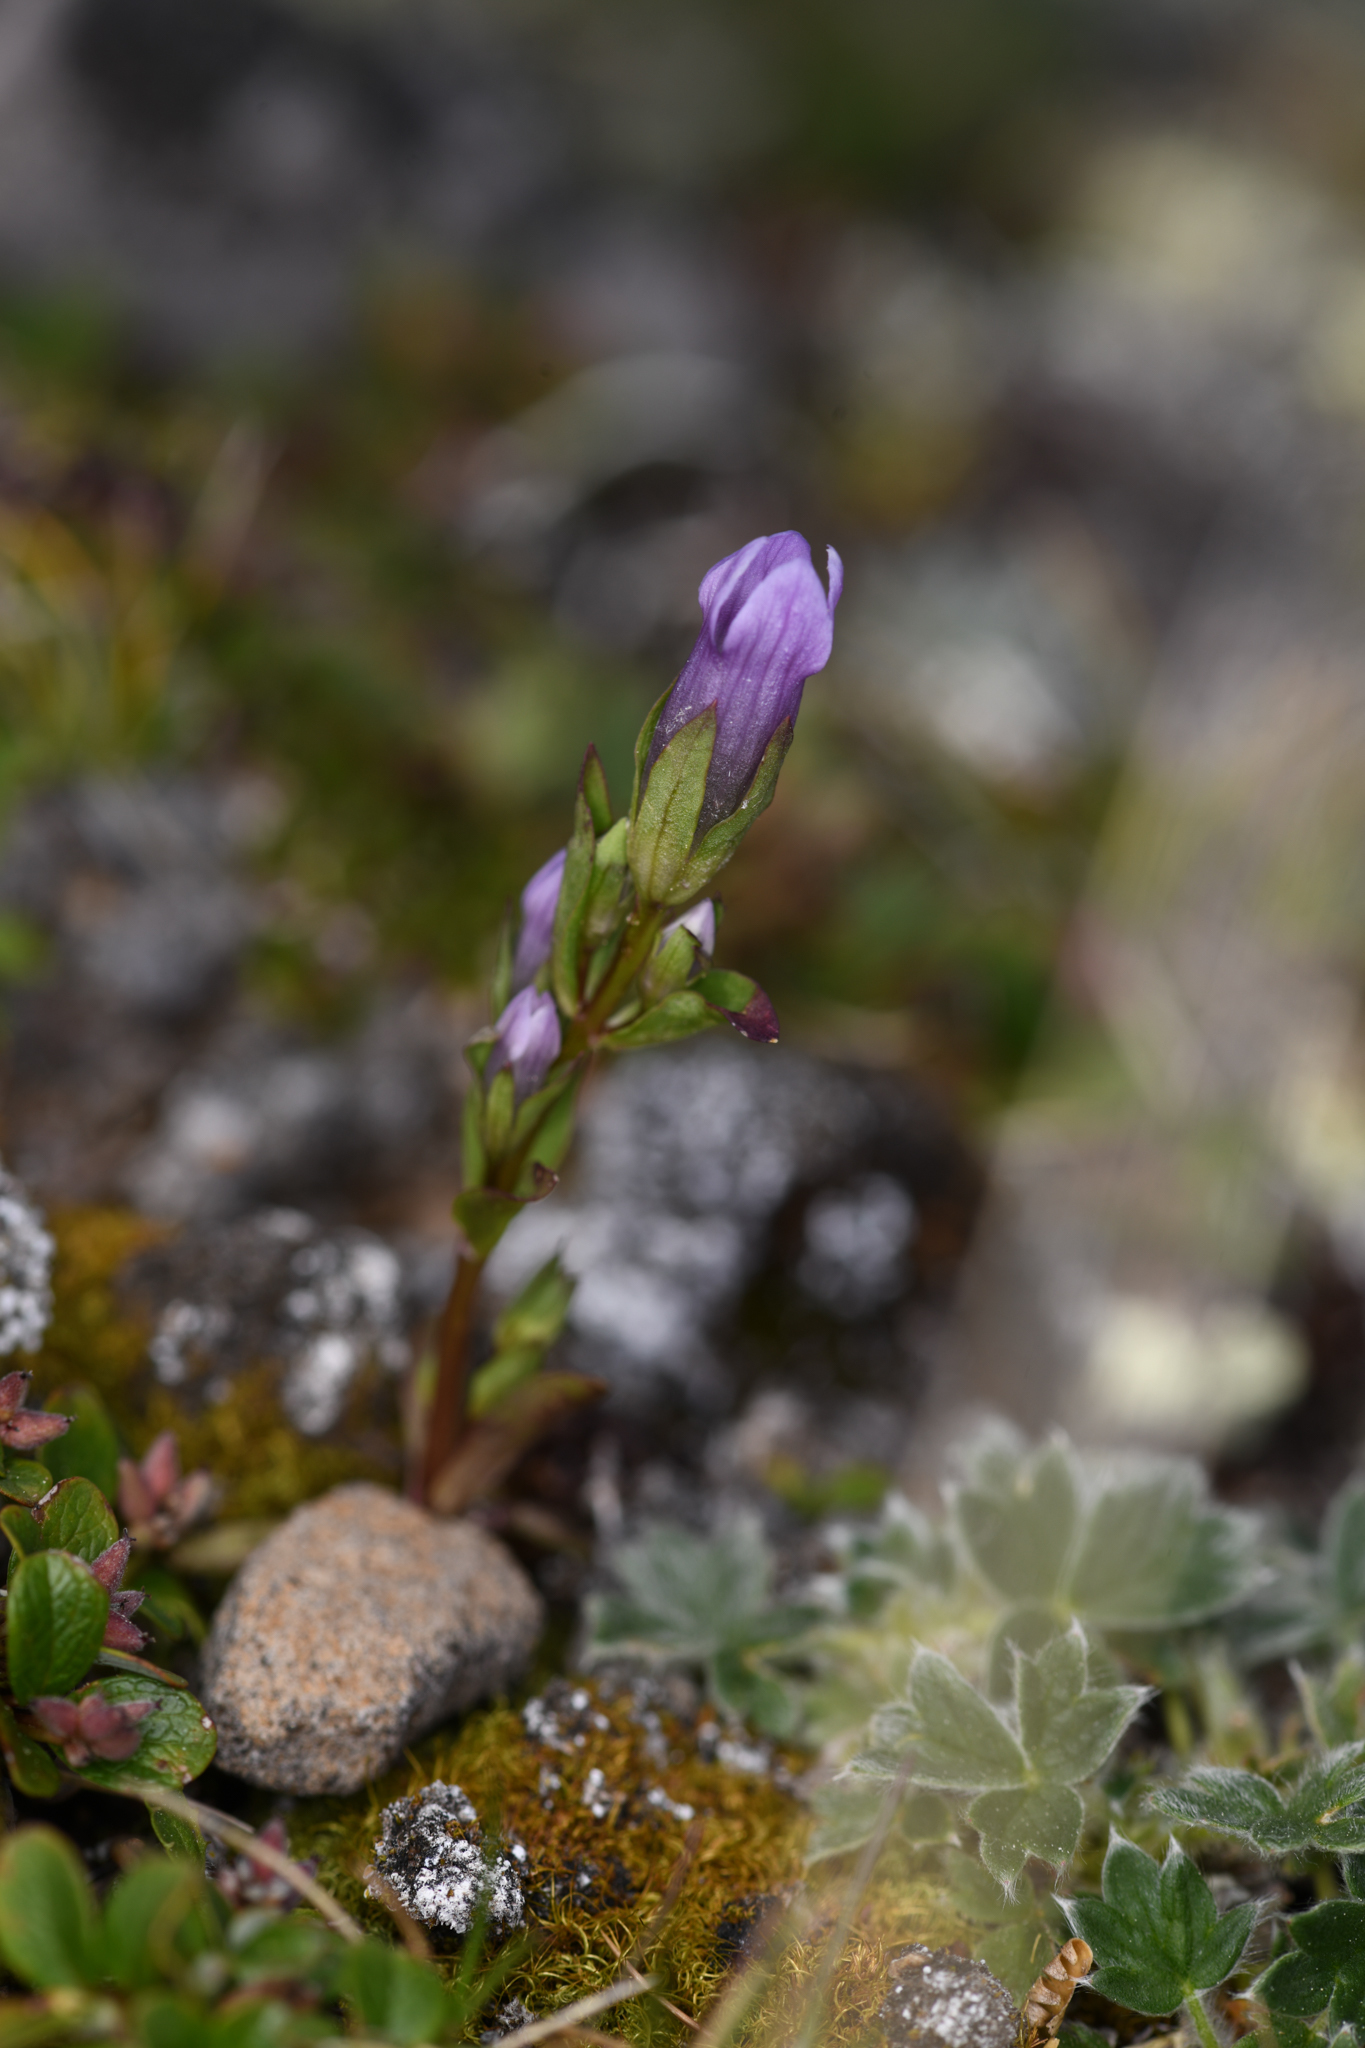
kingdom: Plantae
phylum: Tracheophyta
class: Magnoliopsida
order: Gentianales
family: Gentianaceae
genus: Gentianella
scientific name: Gentianella propinqua
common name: Four-parted dwarf-gentian
